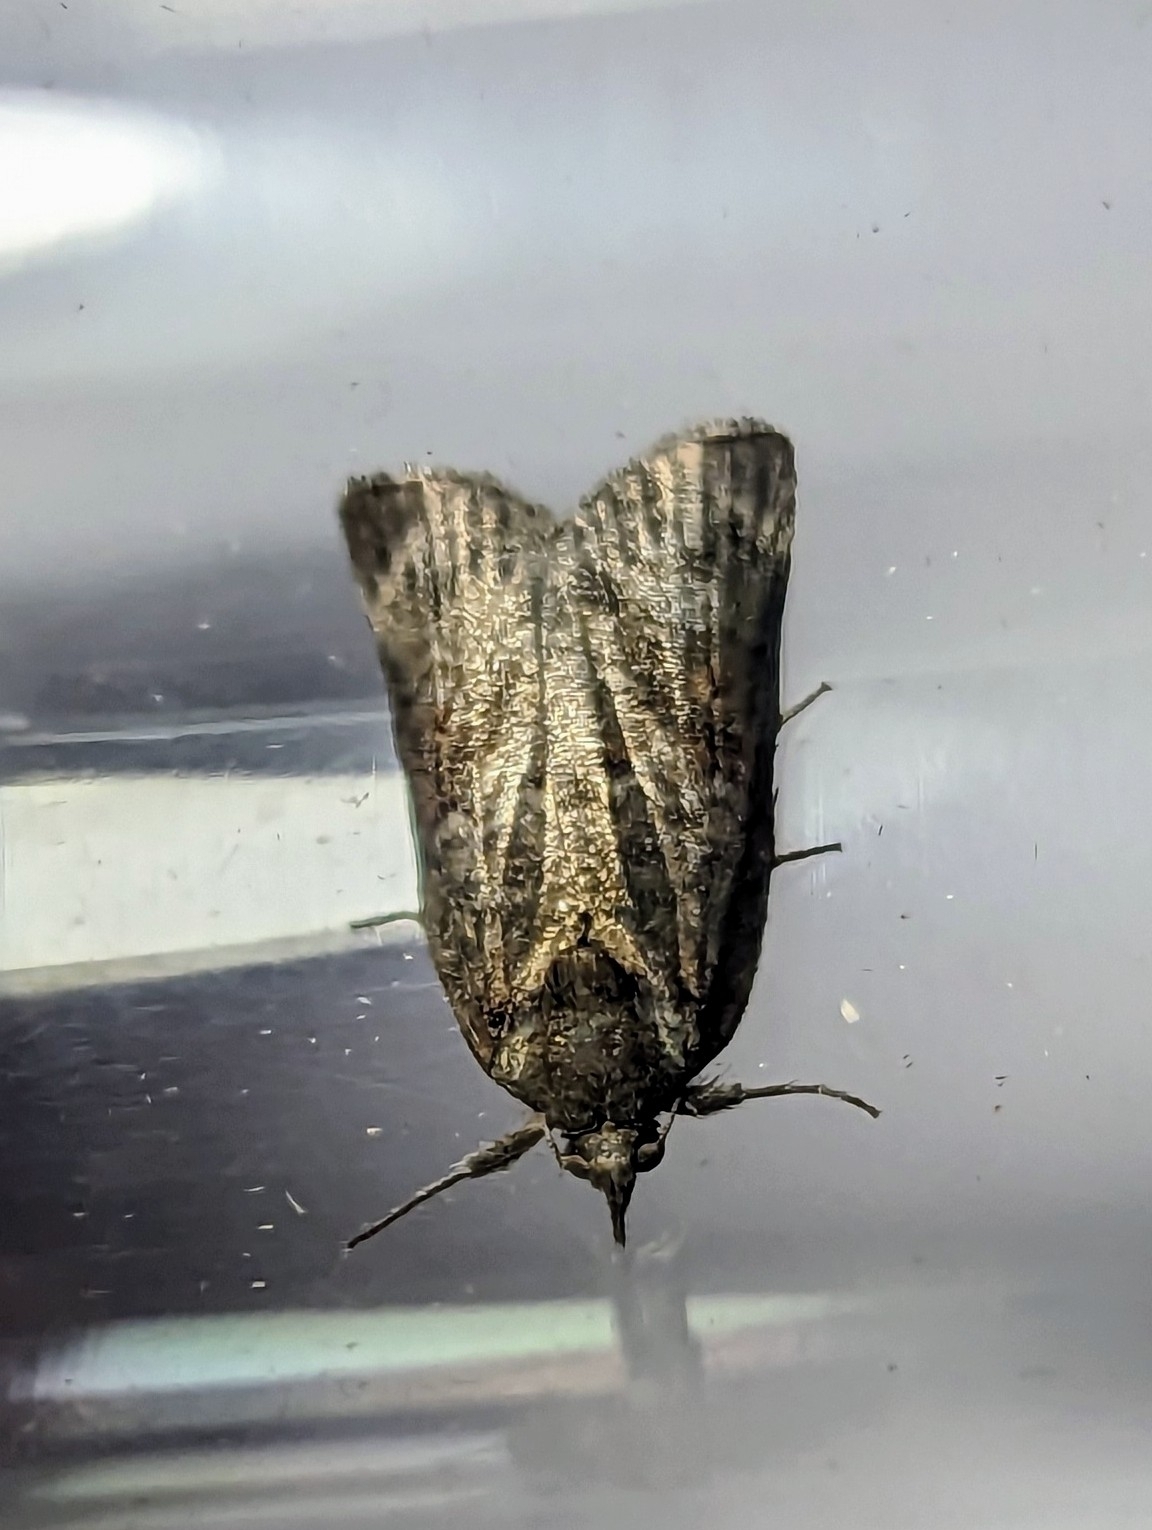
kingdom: Animalia
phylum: Arthropoda
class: Insecta
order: Lepidoptera
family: Nolidae
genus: Nycteola
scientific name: Nycteola revayana
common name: Oak nycteoline
